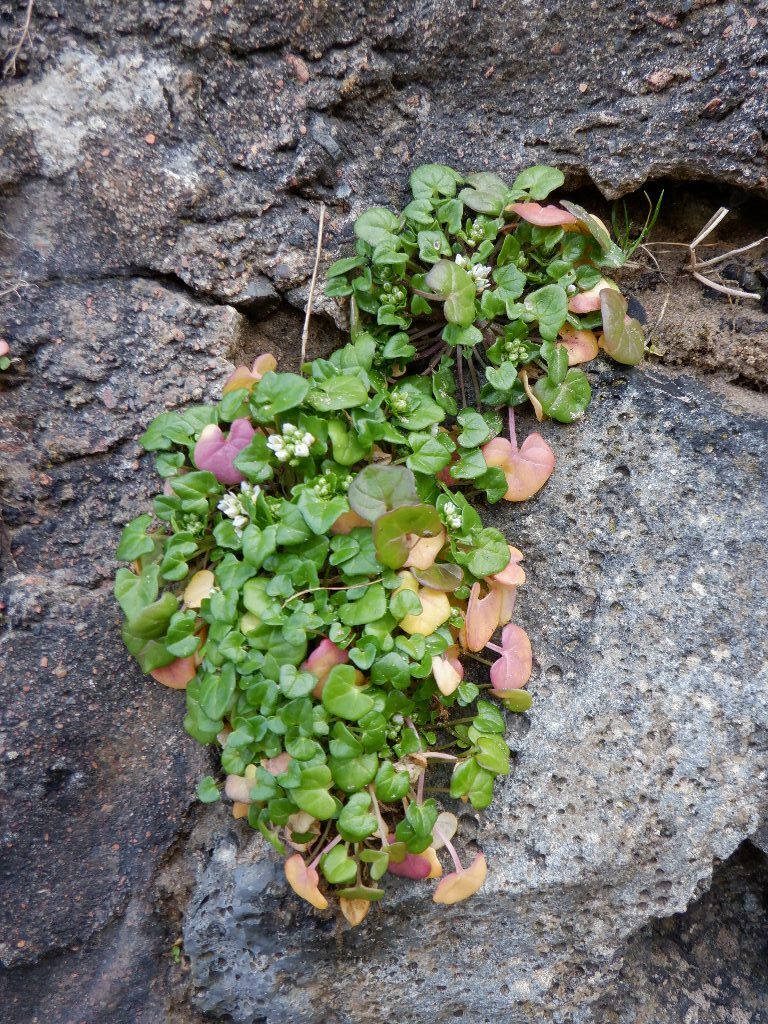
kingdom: Plantae
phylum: Tracheophyta
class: Magnoliopsida
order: Brassicales
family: Brassicaceae
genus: Cochlearia
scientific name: Cochlearia danica
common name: Early scurvygrass
